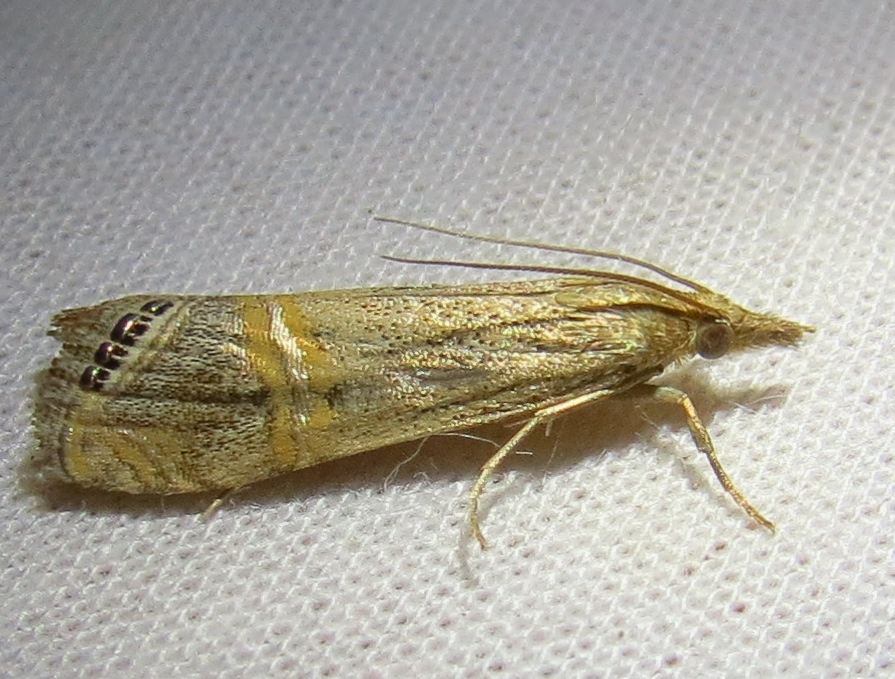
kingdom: Animalia
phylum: Arthropoda
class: Insecta
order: Lepidoptera
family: Crambidae
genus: Euchromius
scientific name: Euchromius ocellea
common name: Necklace veneer moth
